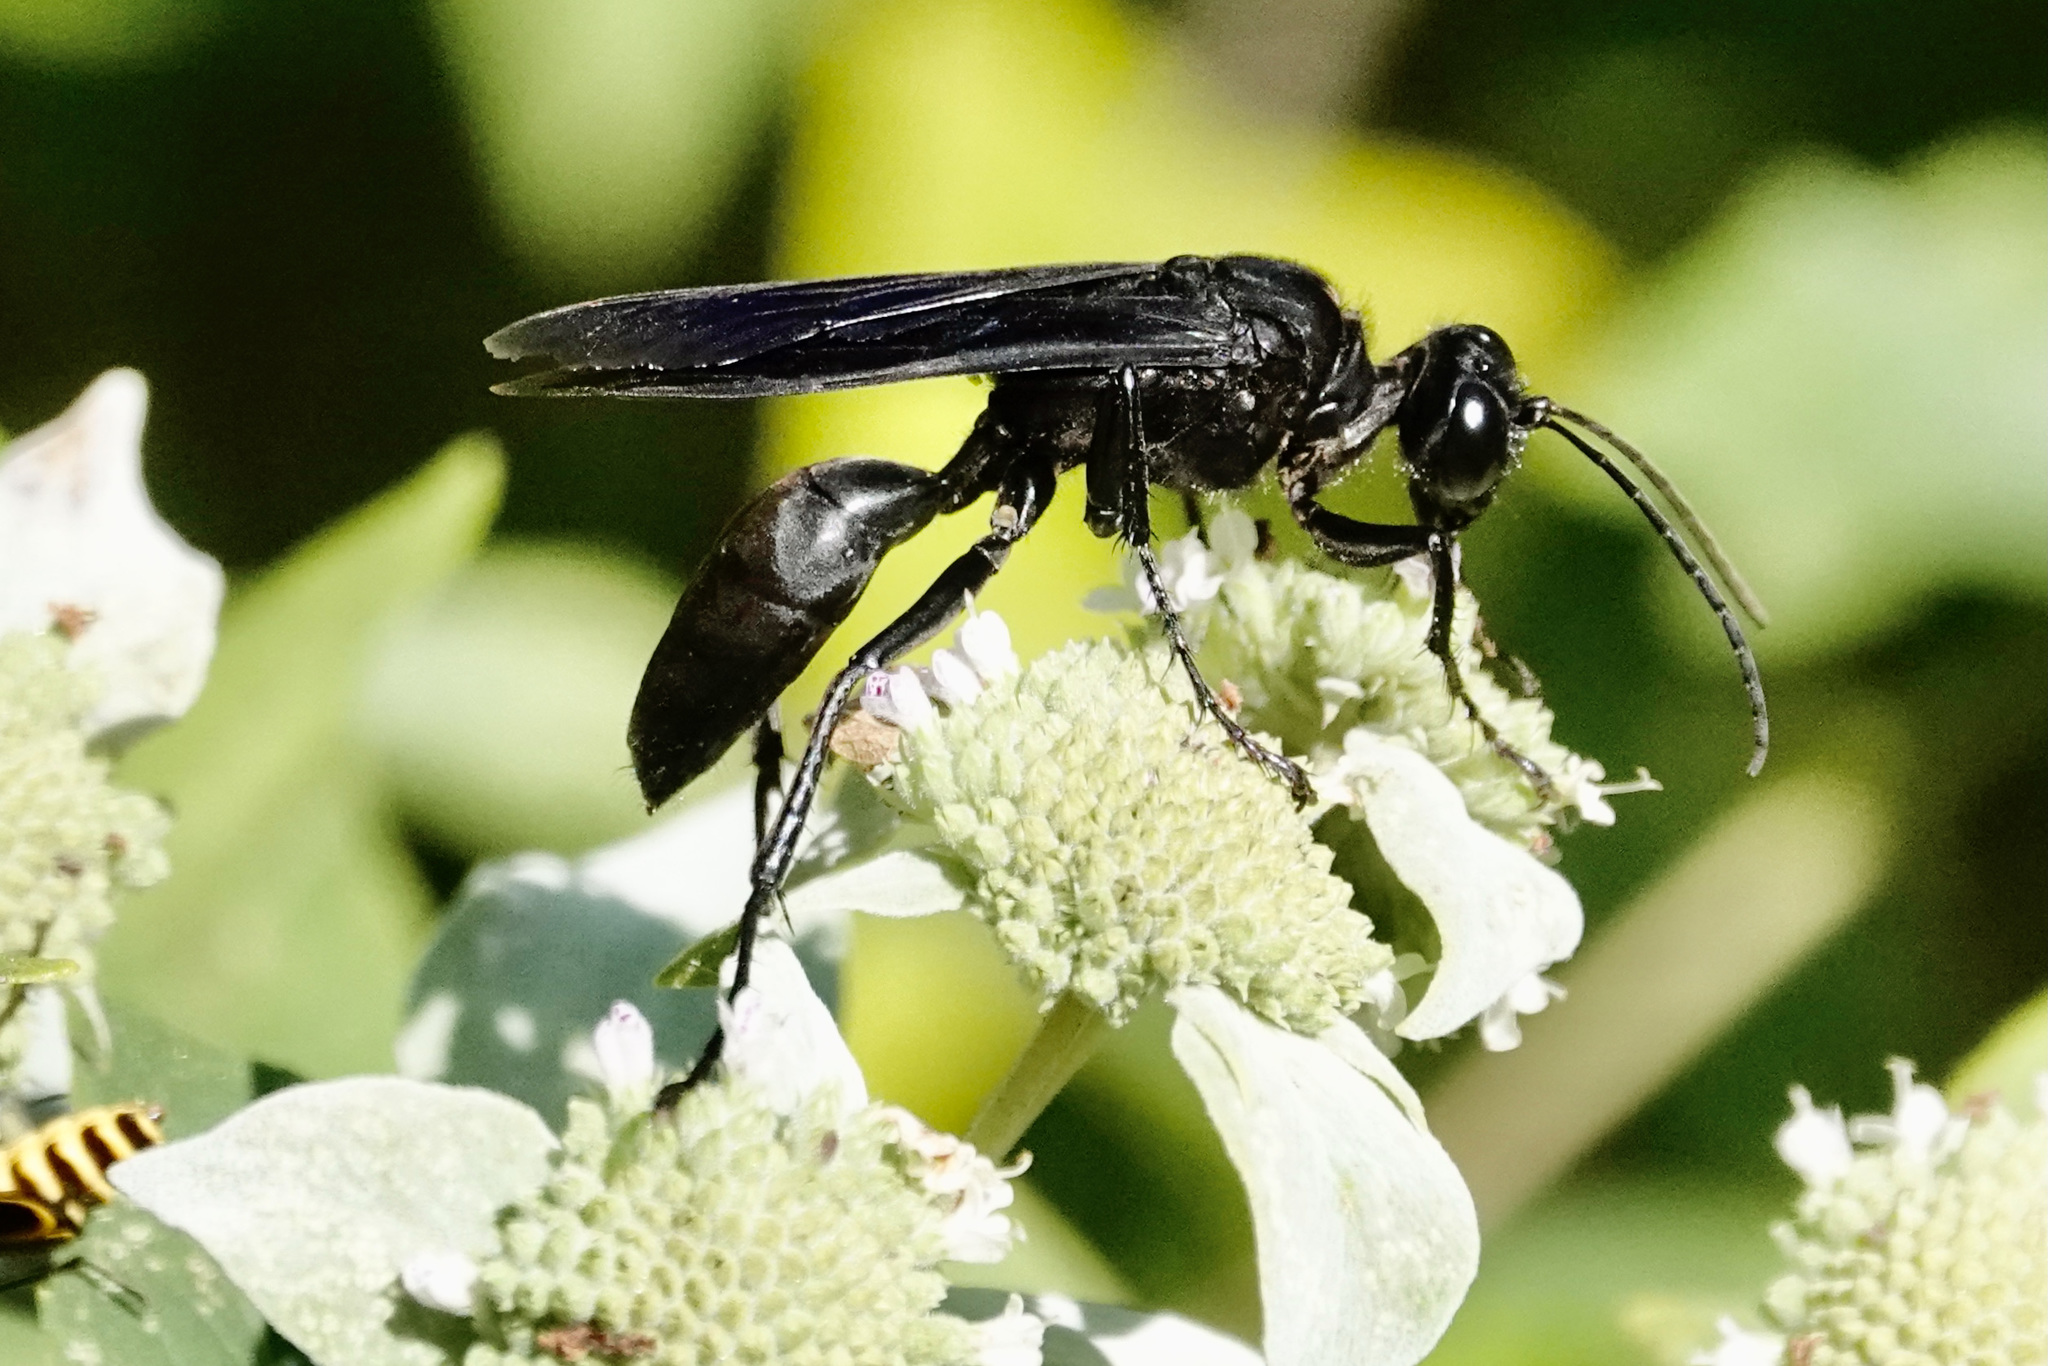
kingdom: Animalia
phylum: Arthropoda
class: Insecta
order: Hymenoptera
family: Sphecidae
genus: Sphex
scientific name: Sphex pensylvanicus
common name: Great black digger wasp
